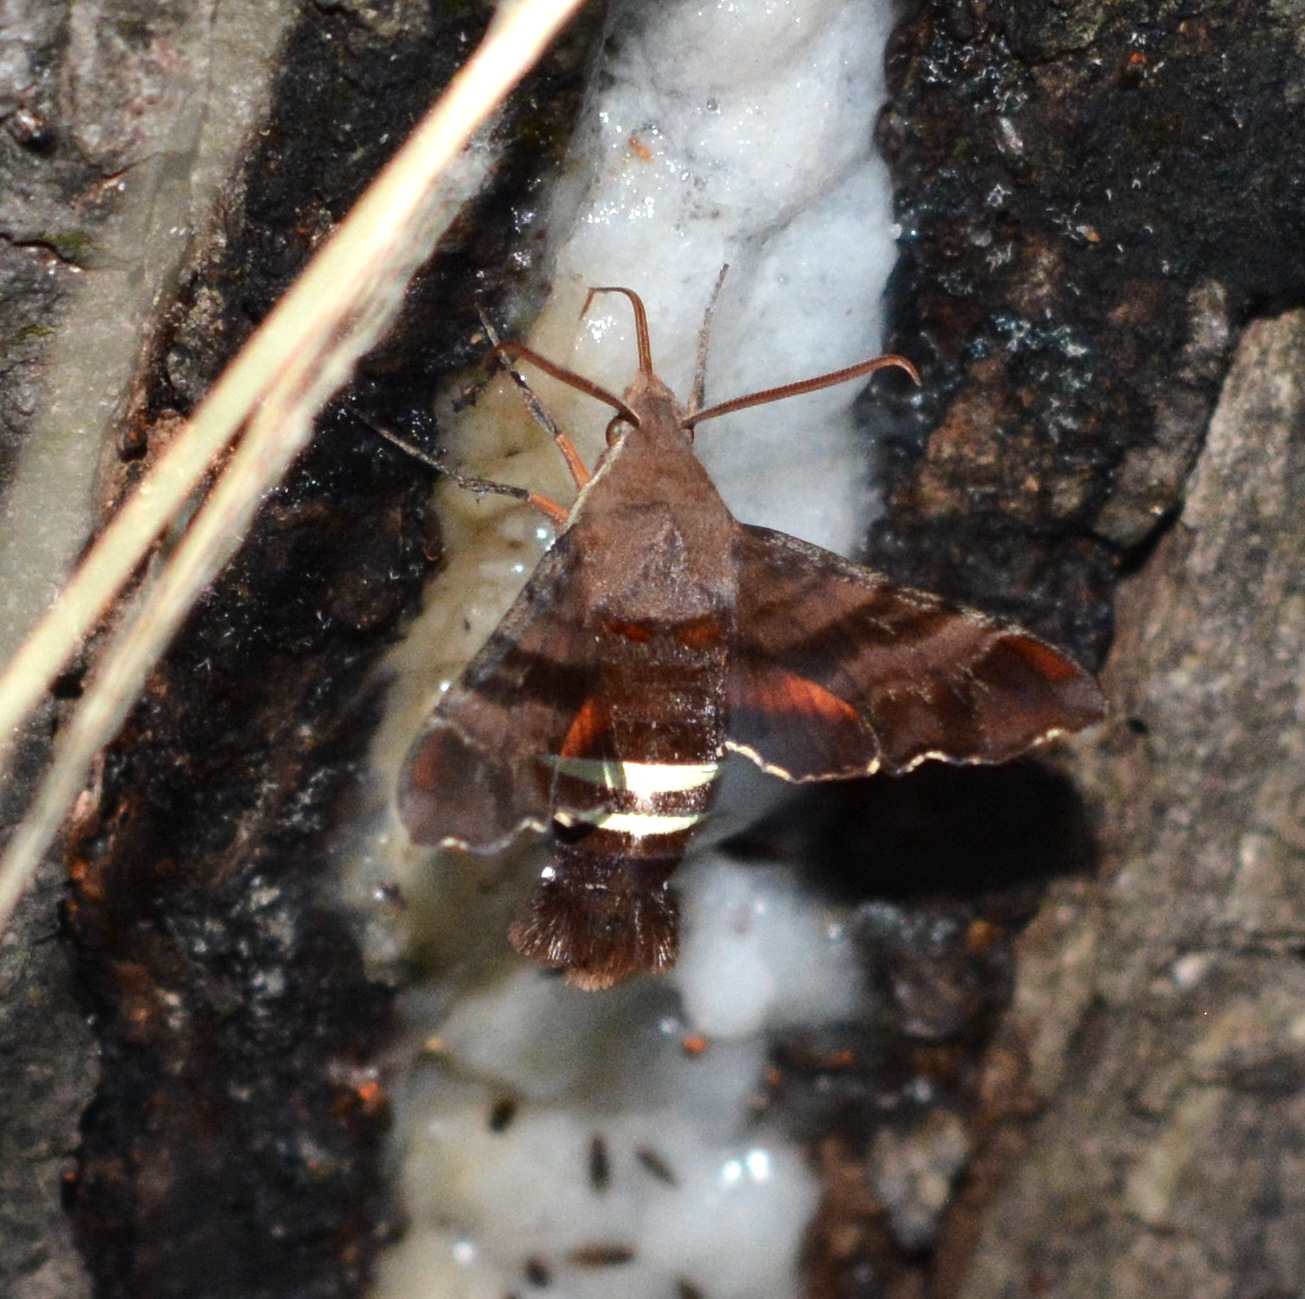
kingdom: Animalia
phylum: Arthropoda
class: Insecta
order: Lepidoptera
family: Sphingidae
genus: Amphion
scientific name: Amphion floridensis
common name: Nessus sphinx
